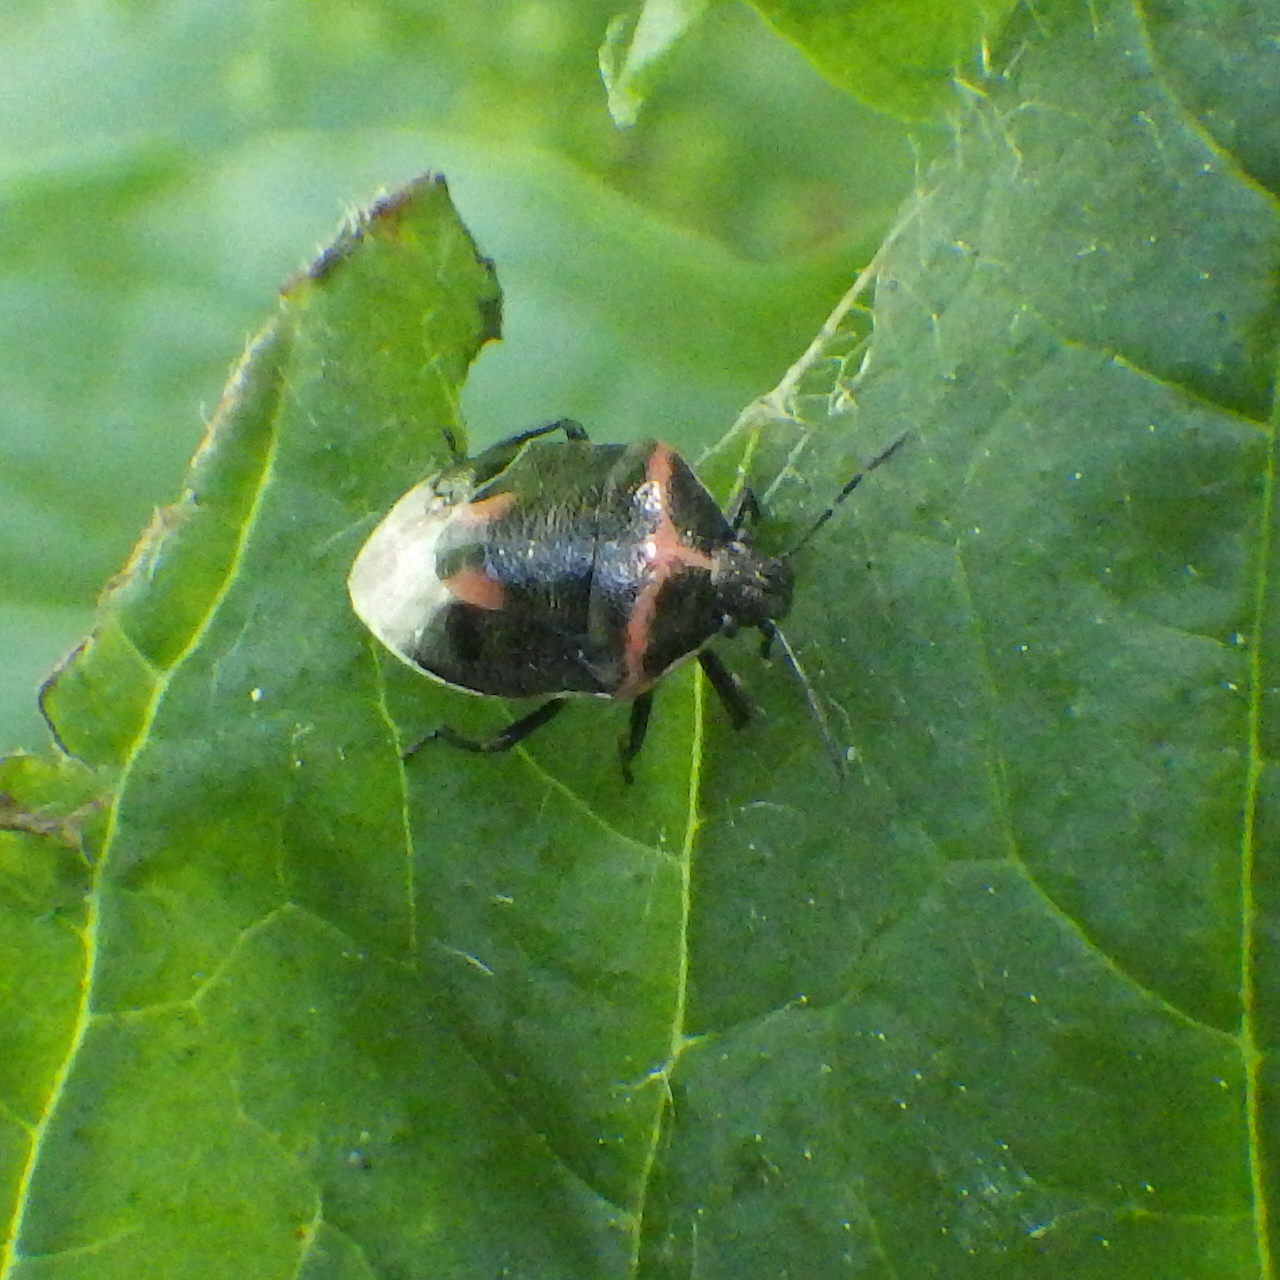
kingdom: Animalia
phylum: Arthropoda
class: Insecta
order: Hemiptera
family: Pentatomidae
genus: Cosmopepla
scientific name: Cosmopepla lintneriana
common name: Twice-stabbed stink bug
